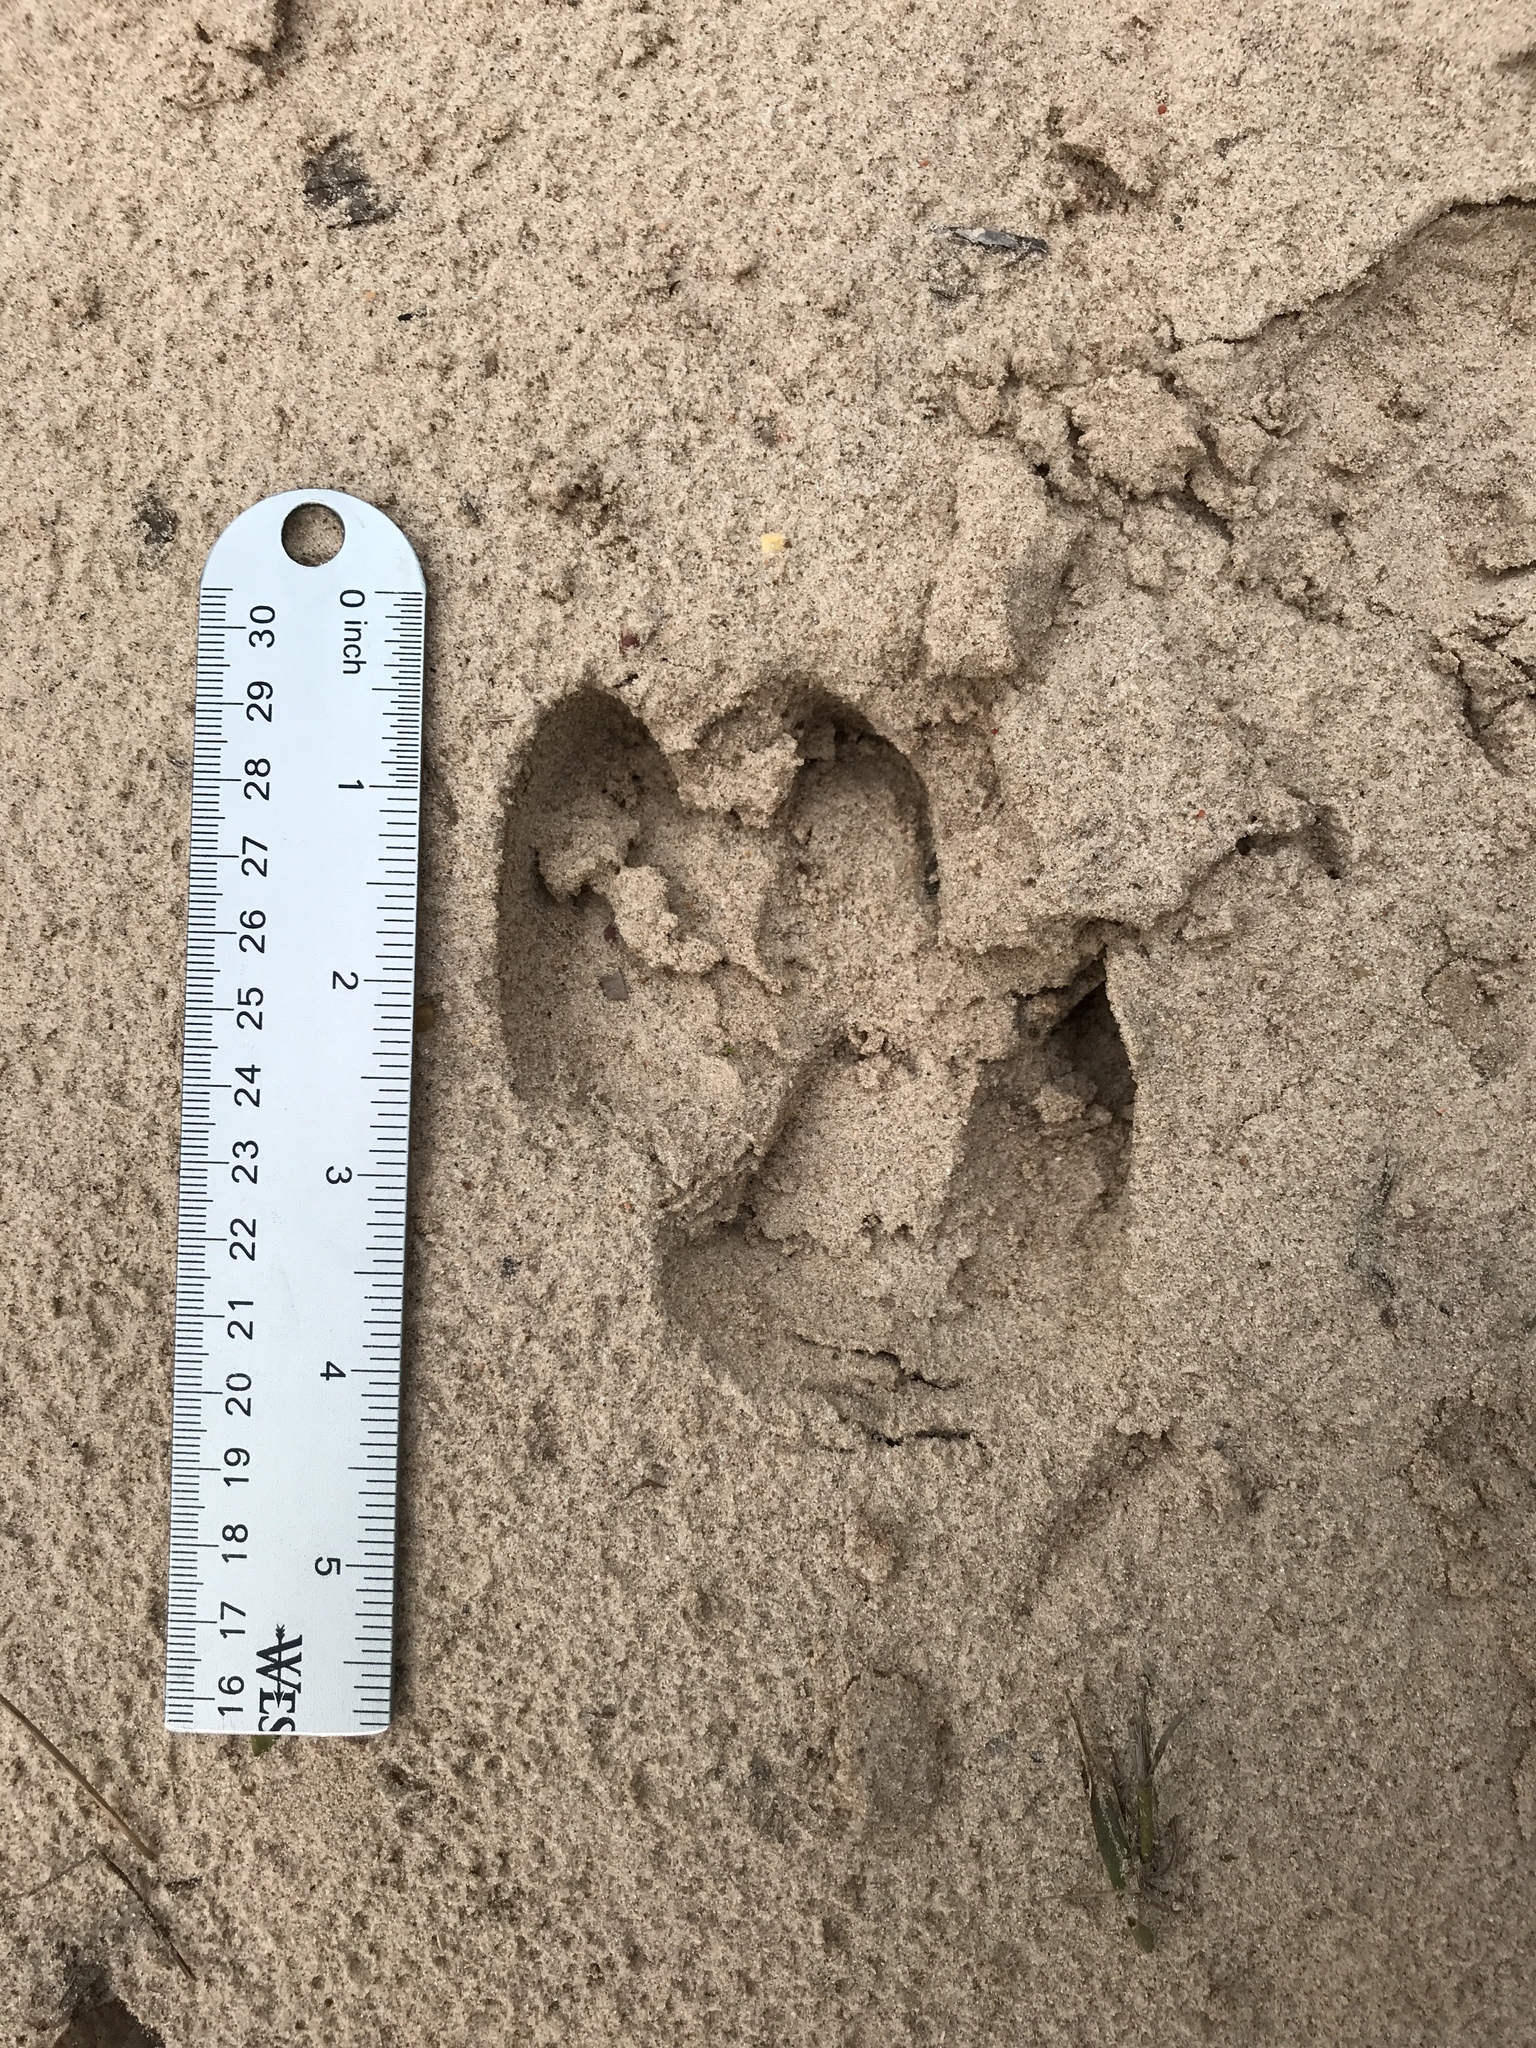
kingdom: Animalia
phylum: Chordata
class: Mammalia
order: Artiodactyla
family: Suidae
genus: Sus
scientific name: Sus scrofa
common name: Wild boar
